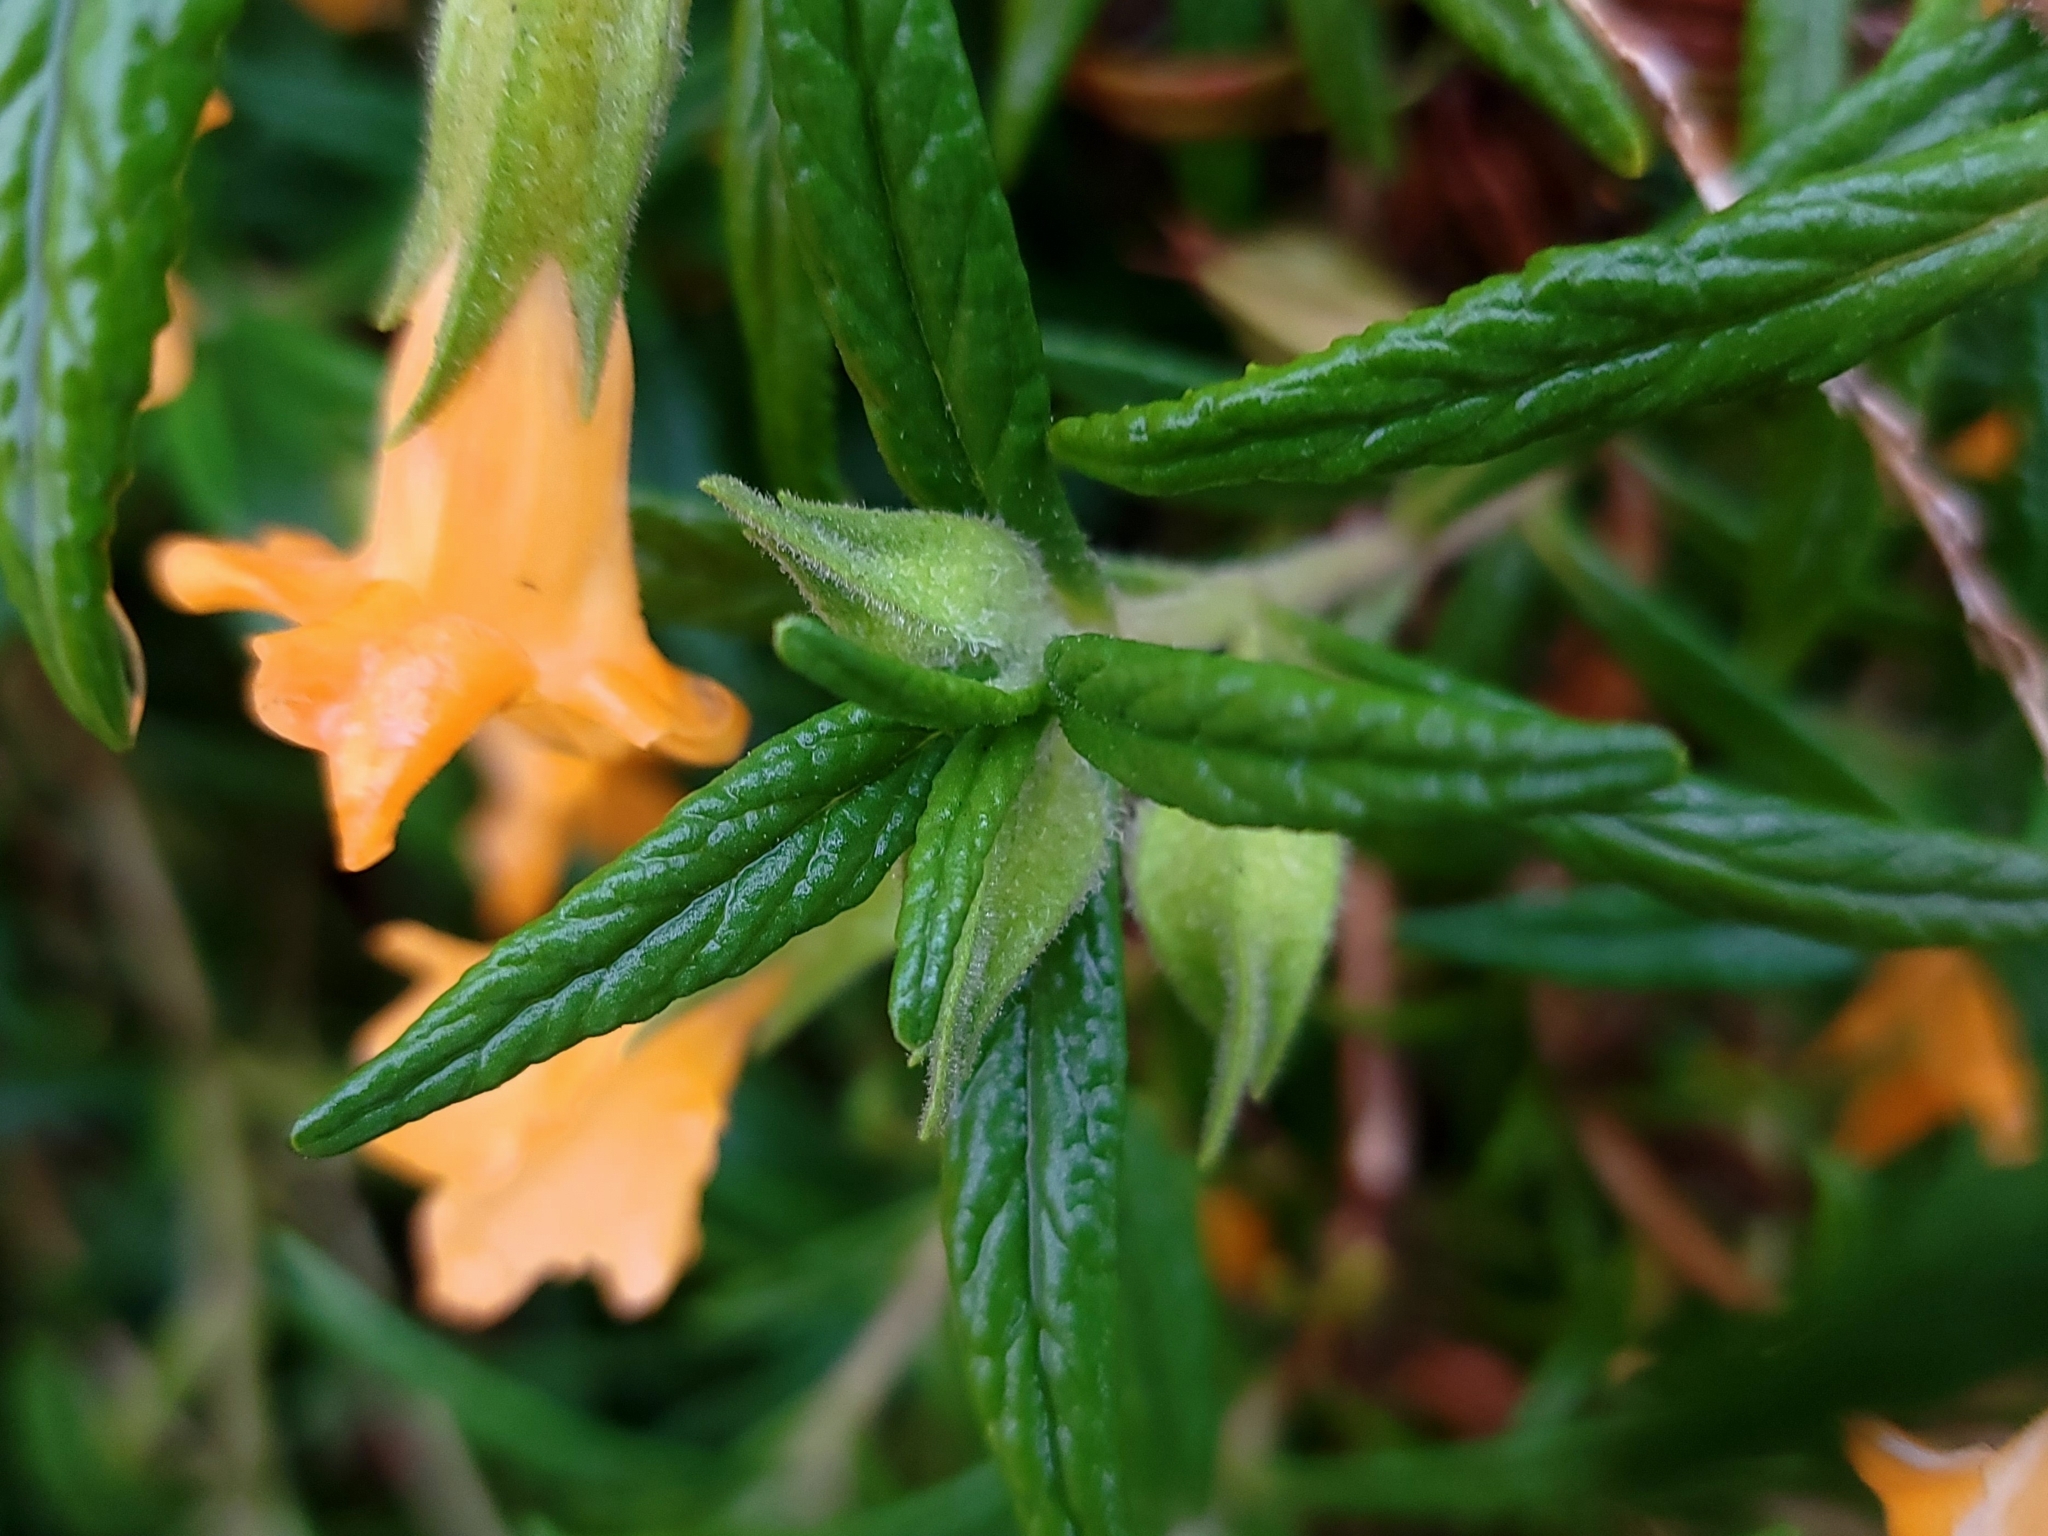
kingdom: Plantae
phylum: Tracheophyta
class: Magnoliopsida
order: Lamiales
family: Phrymaceae
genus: Diplacus
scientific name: Diplacus longiflorus
